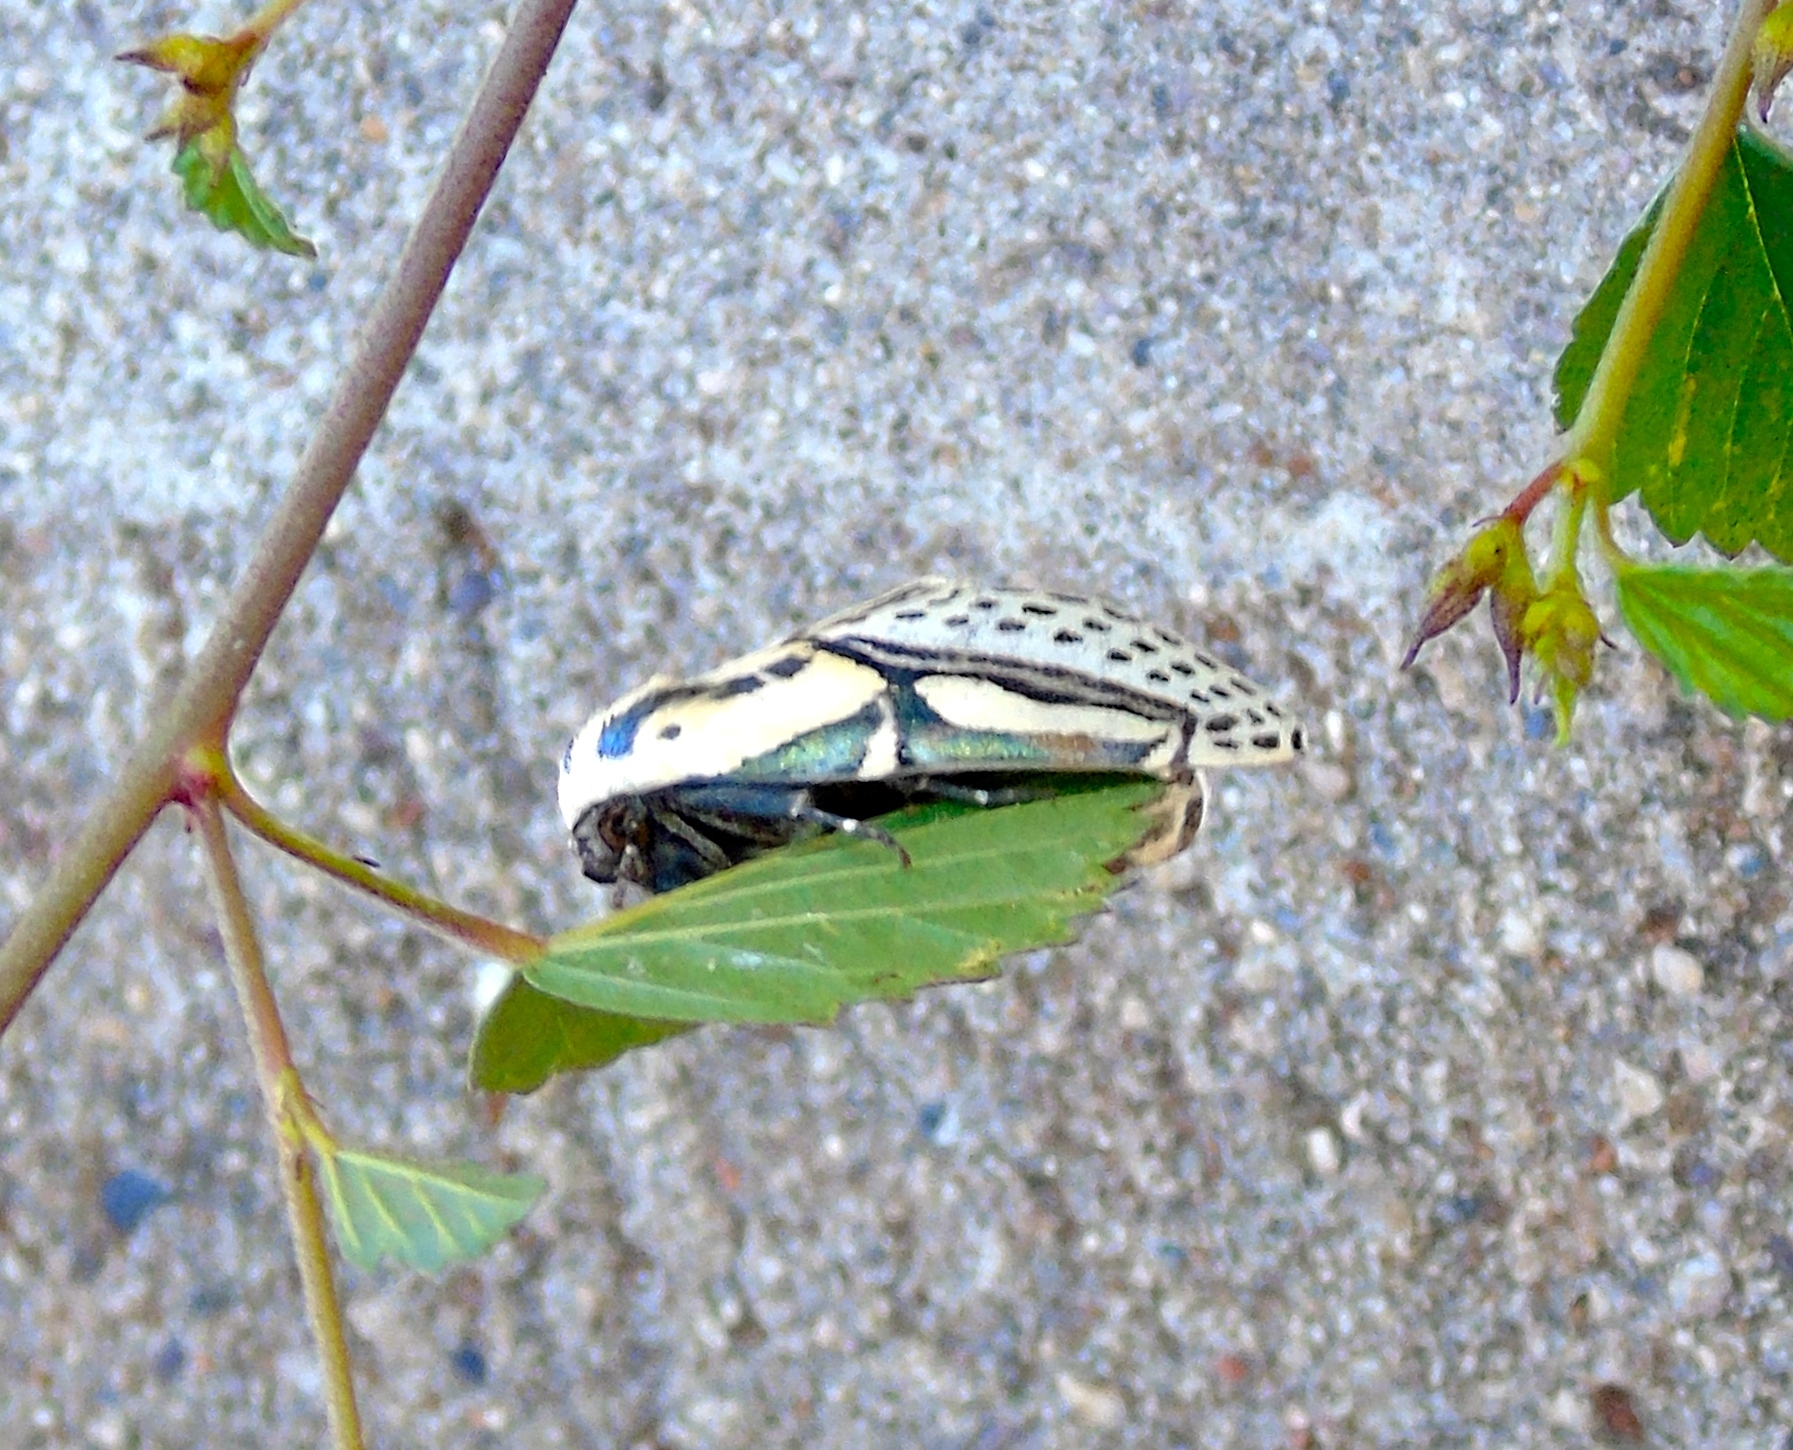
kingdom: Animalia
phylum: Arthropoda
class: Insecta
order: Lepidoptera
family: Erebidae
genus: Diphthera
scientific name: Diphthera festiva
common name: Hieroglyphic moth
